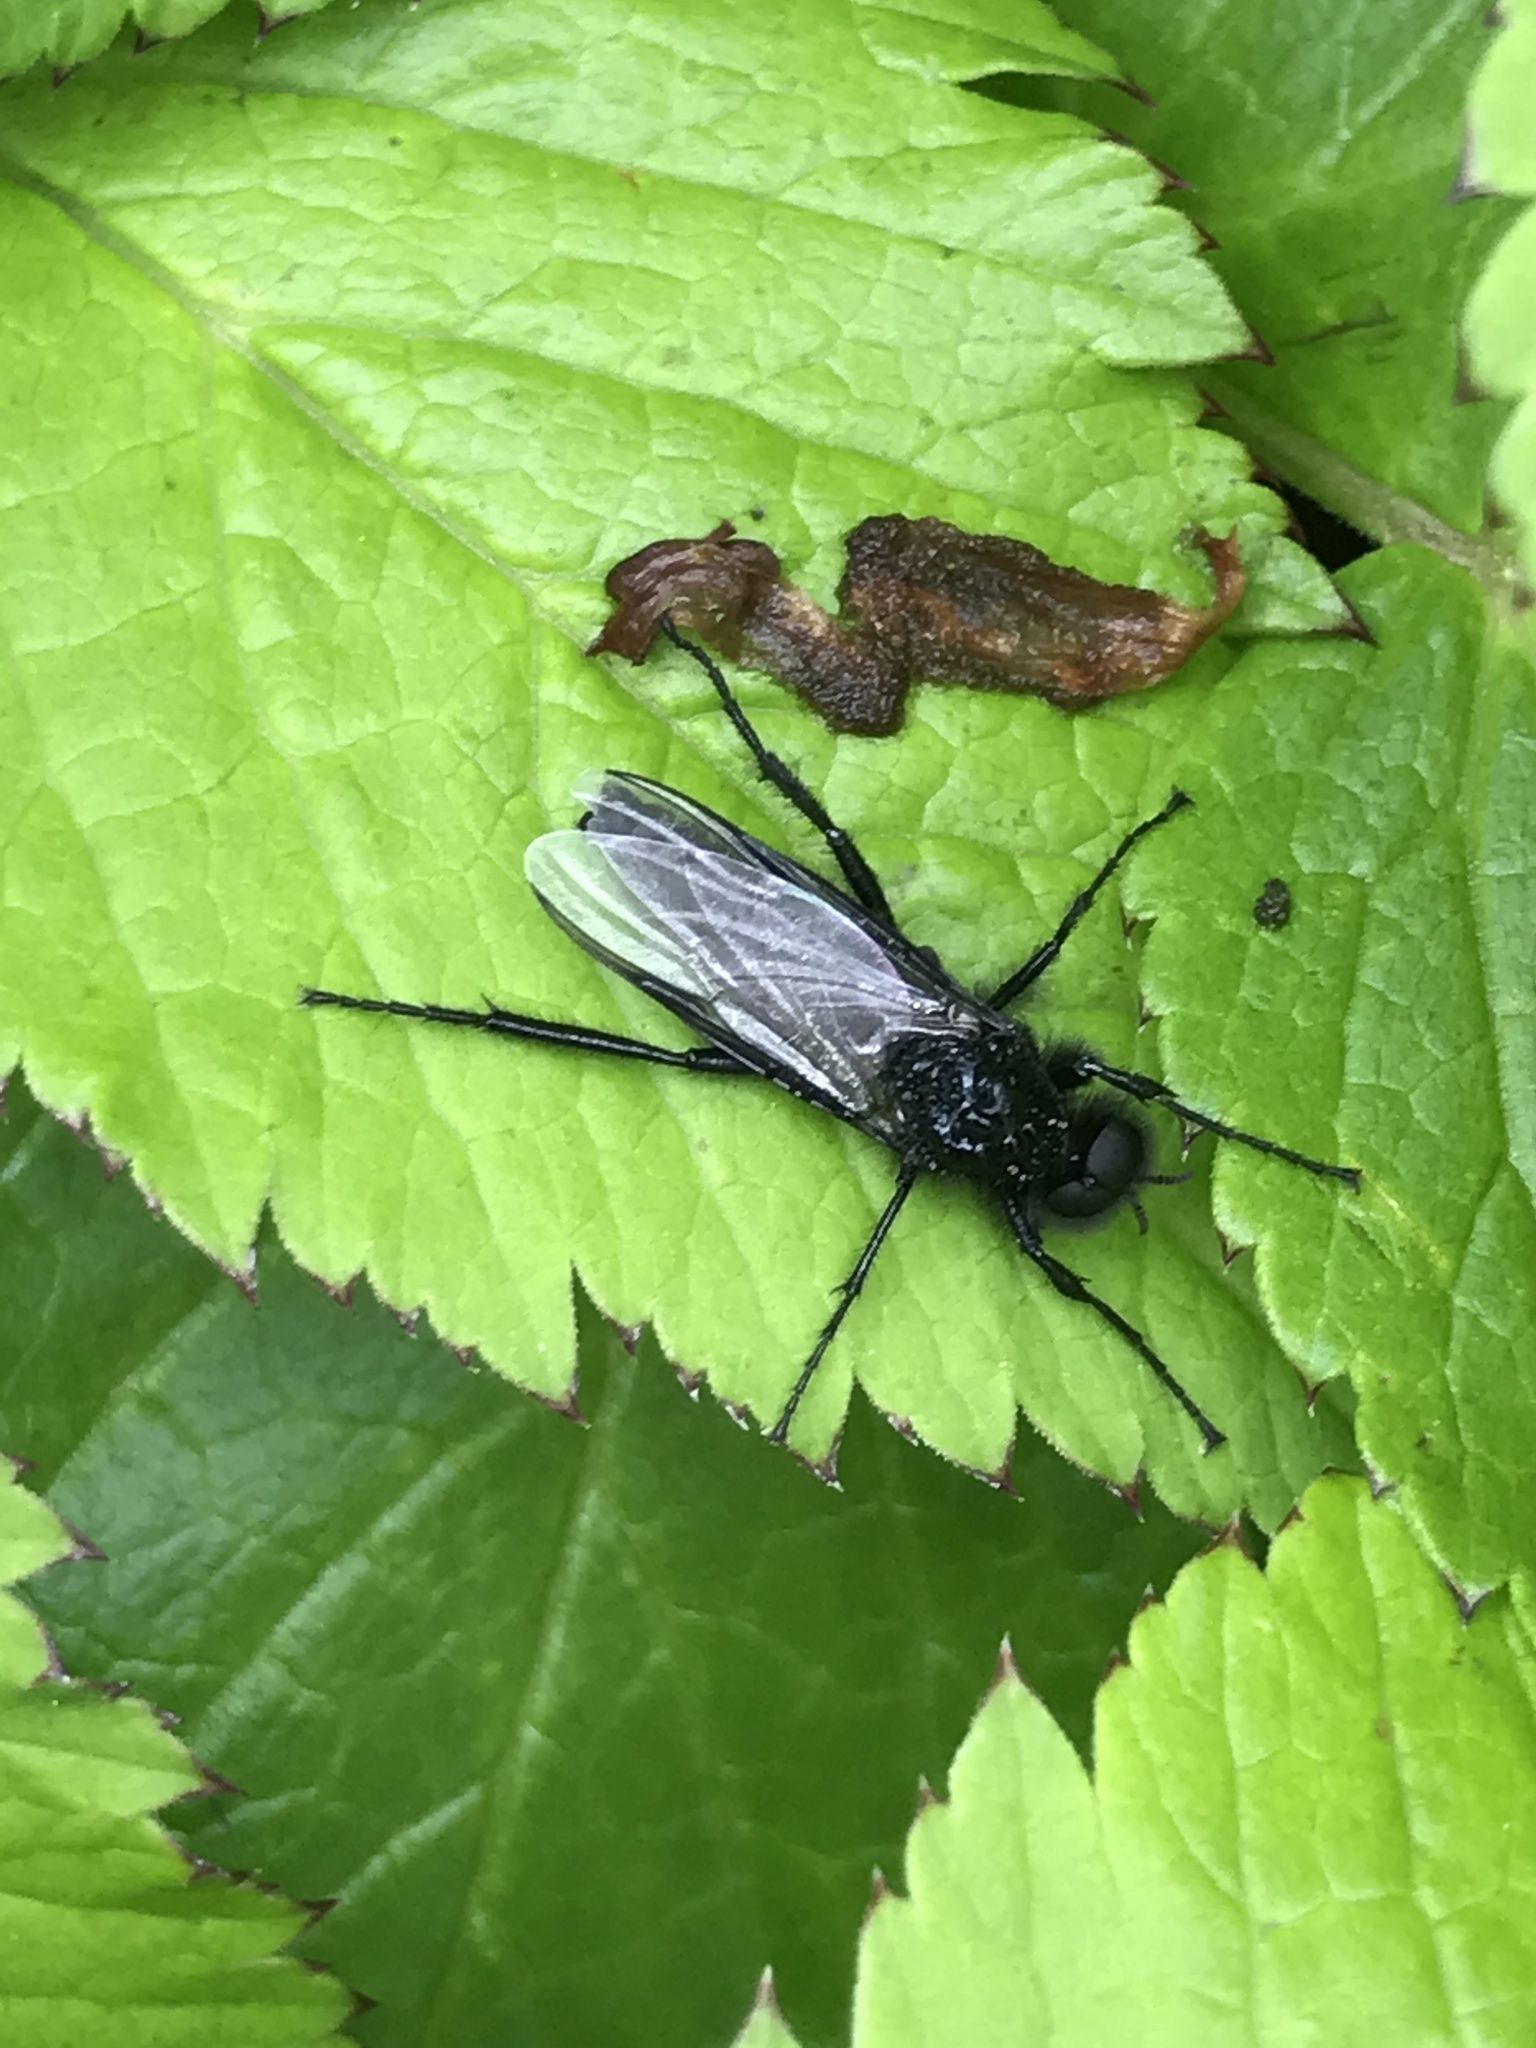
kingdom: Animalia
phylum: Arthropoda
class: Insecta
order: Diptera
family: Bibionidae
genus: Bibio
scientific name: Bibio marci
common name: St marks fly
